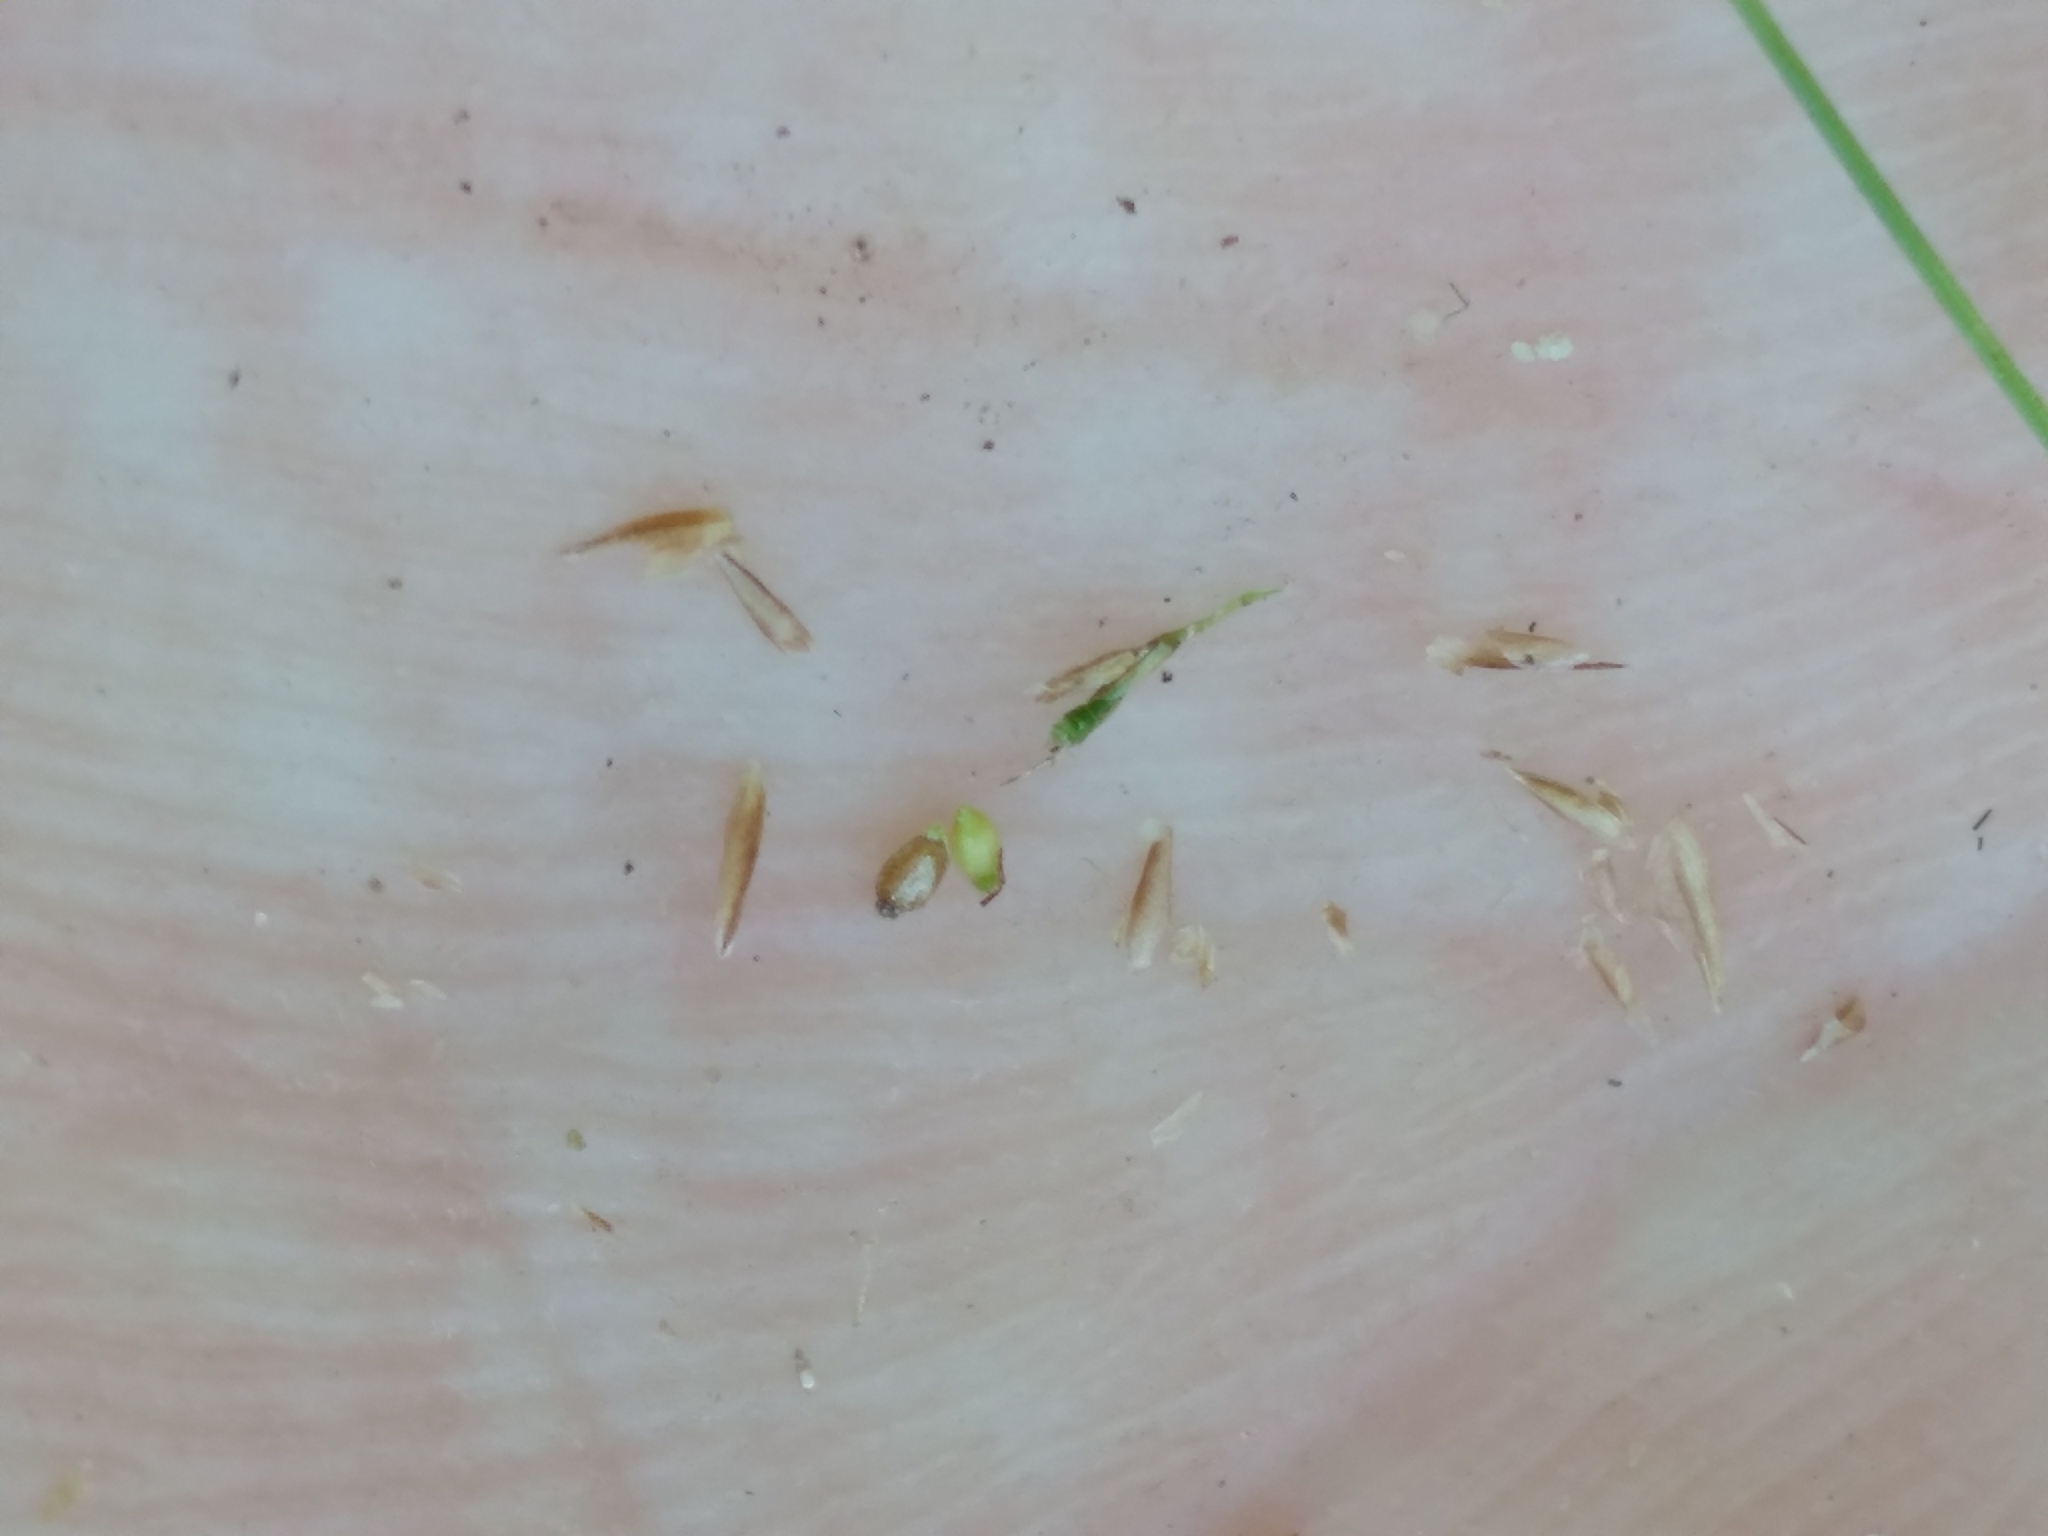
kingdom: Plantae
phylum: Tracheophyta
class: Liliopsida
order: Poales
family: Cyperaceae
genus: Rhynchospora
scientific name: Rhynchospora thornei
